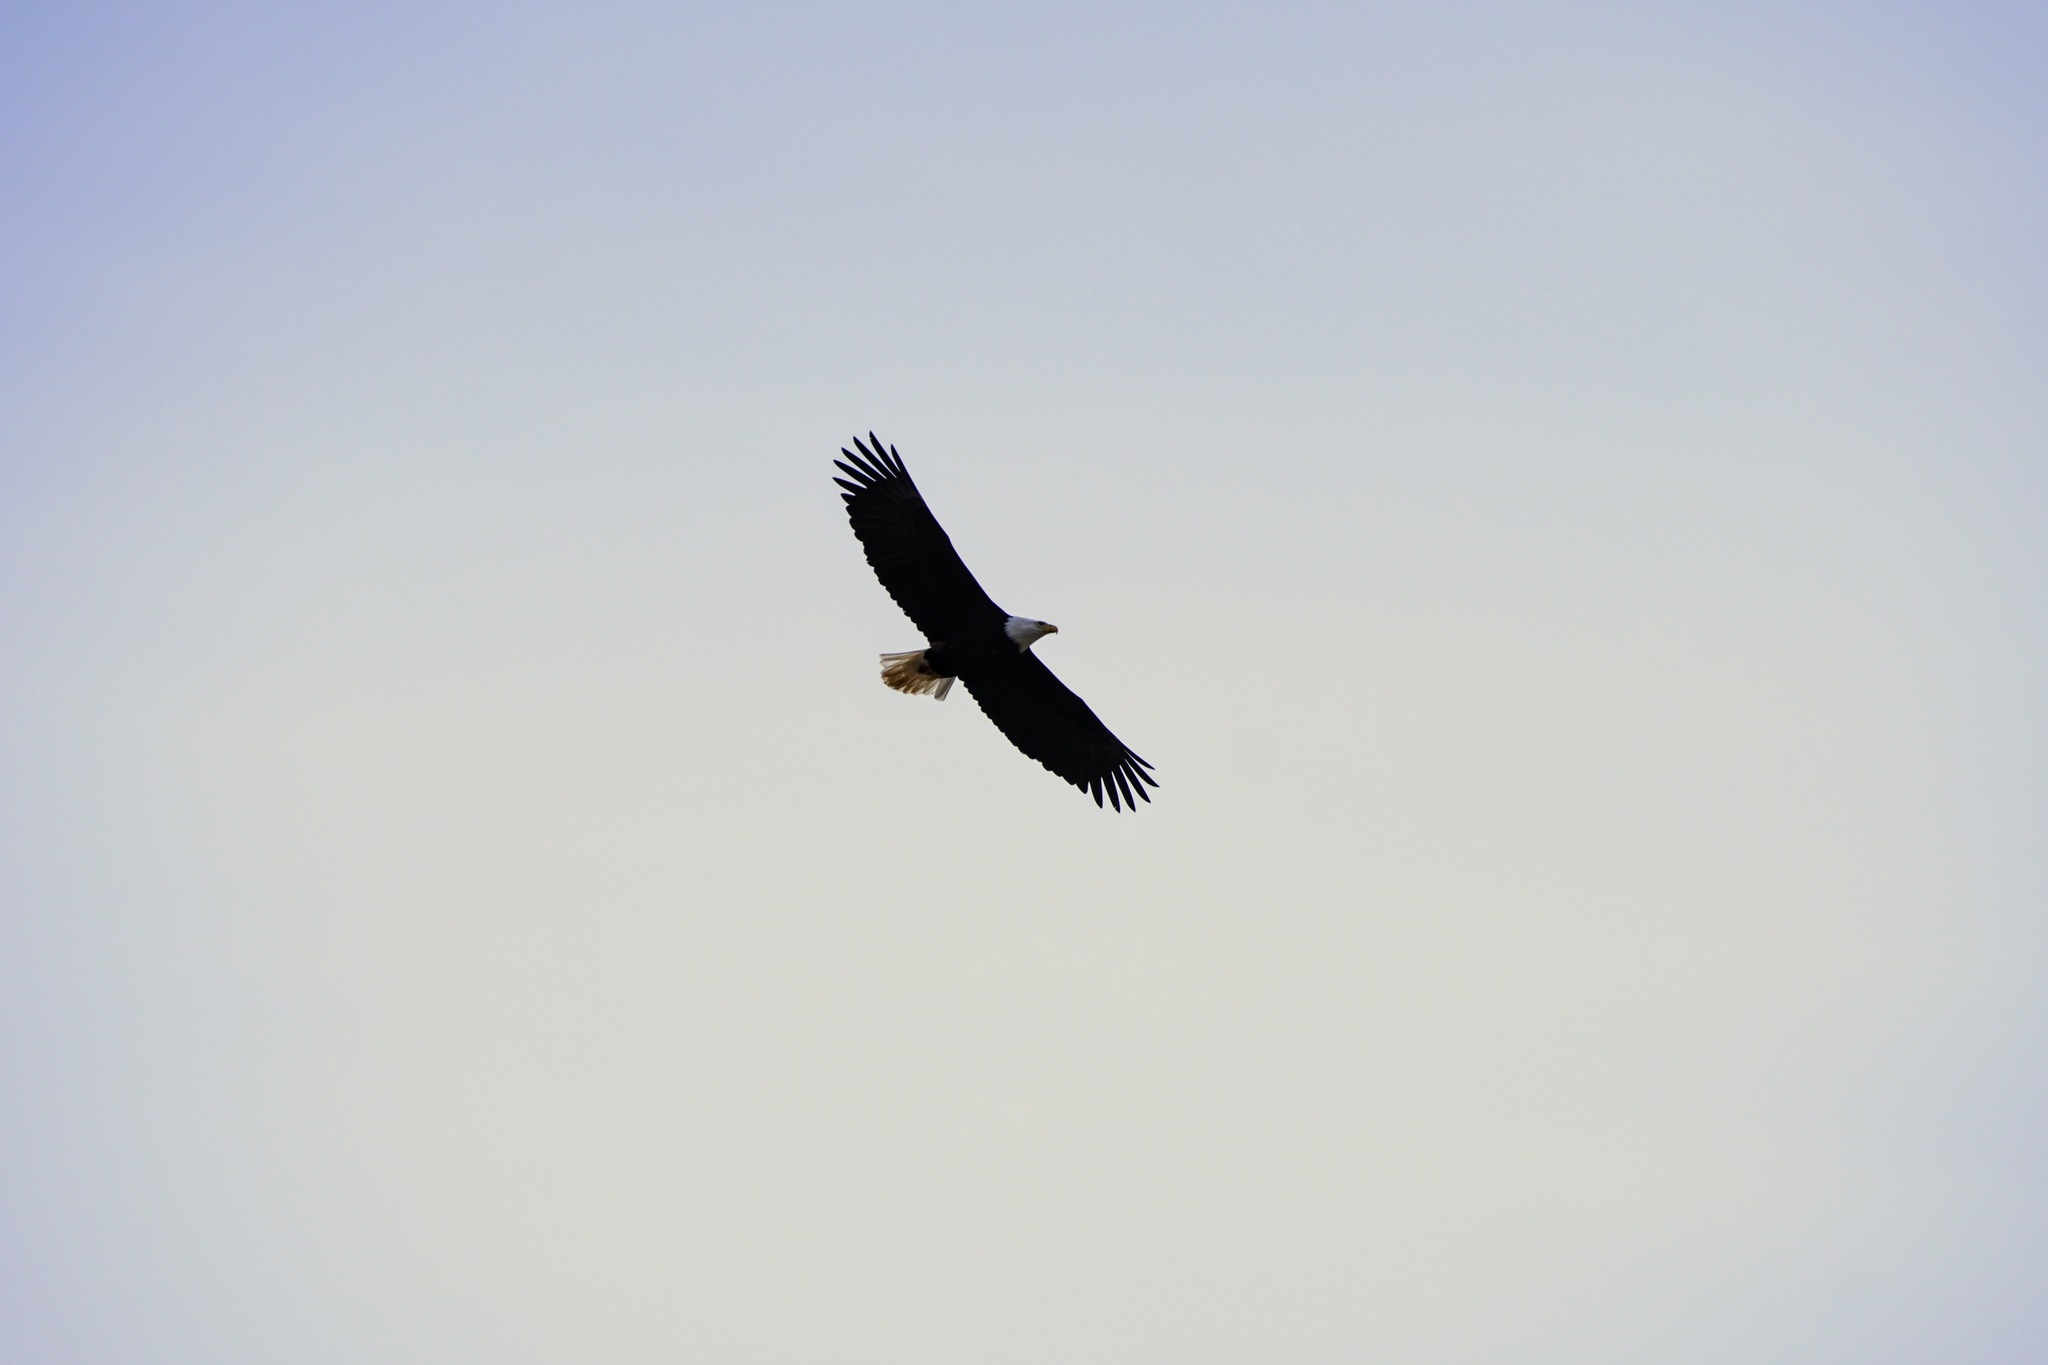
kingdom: Animalia
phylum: Chordata
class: Aves
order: Accipitriformes
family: Accipitridae
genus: Haliaeetus
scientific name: Haliaeetus leucocephalus
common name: Bald eagle
